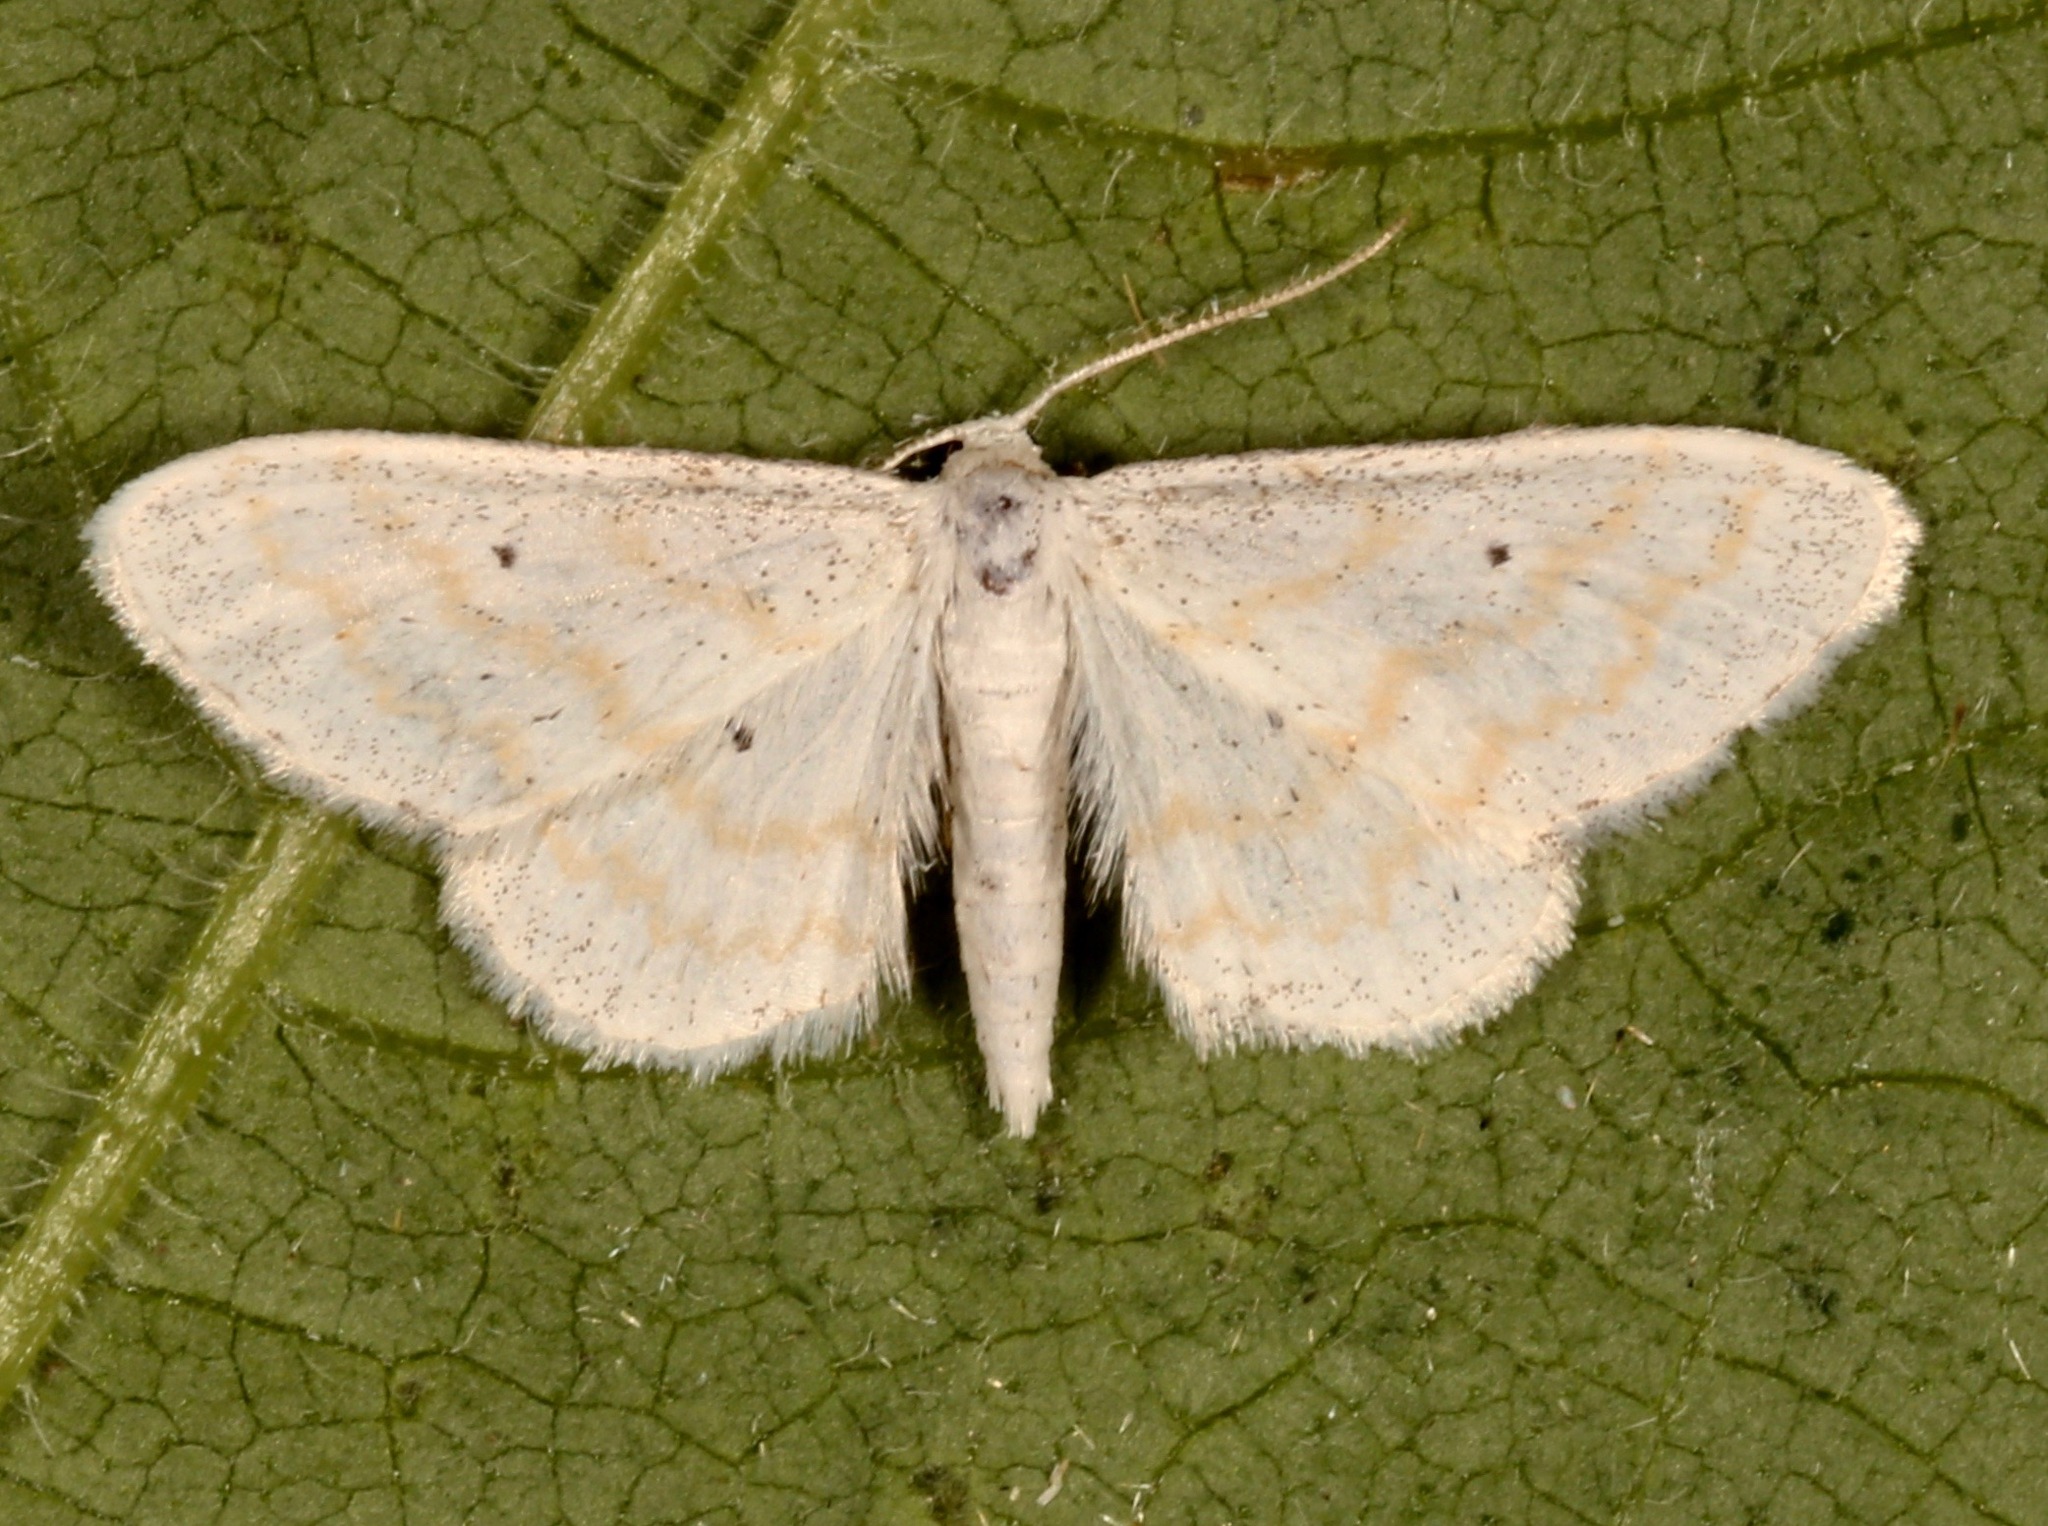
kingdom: Animalia
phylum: Arthropoda
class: Insecta
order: Lepidoptera
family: Geometridae
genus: Lobocleta
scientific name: Lobocleta peralbata
